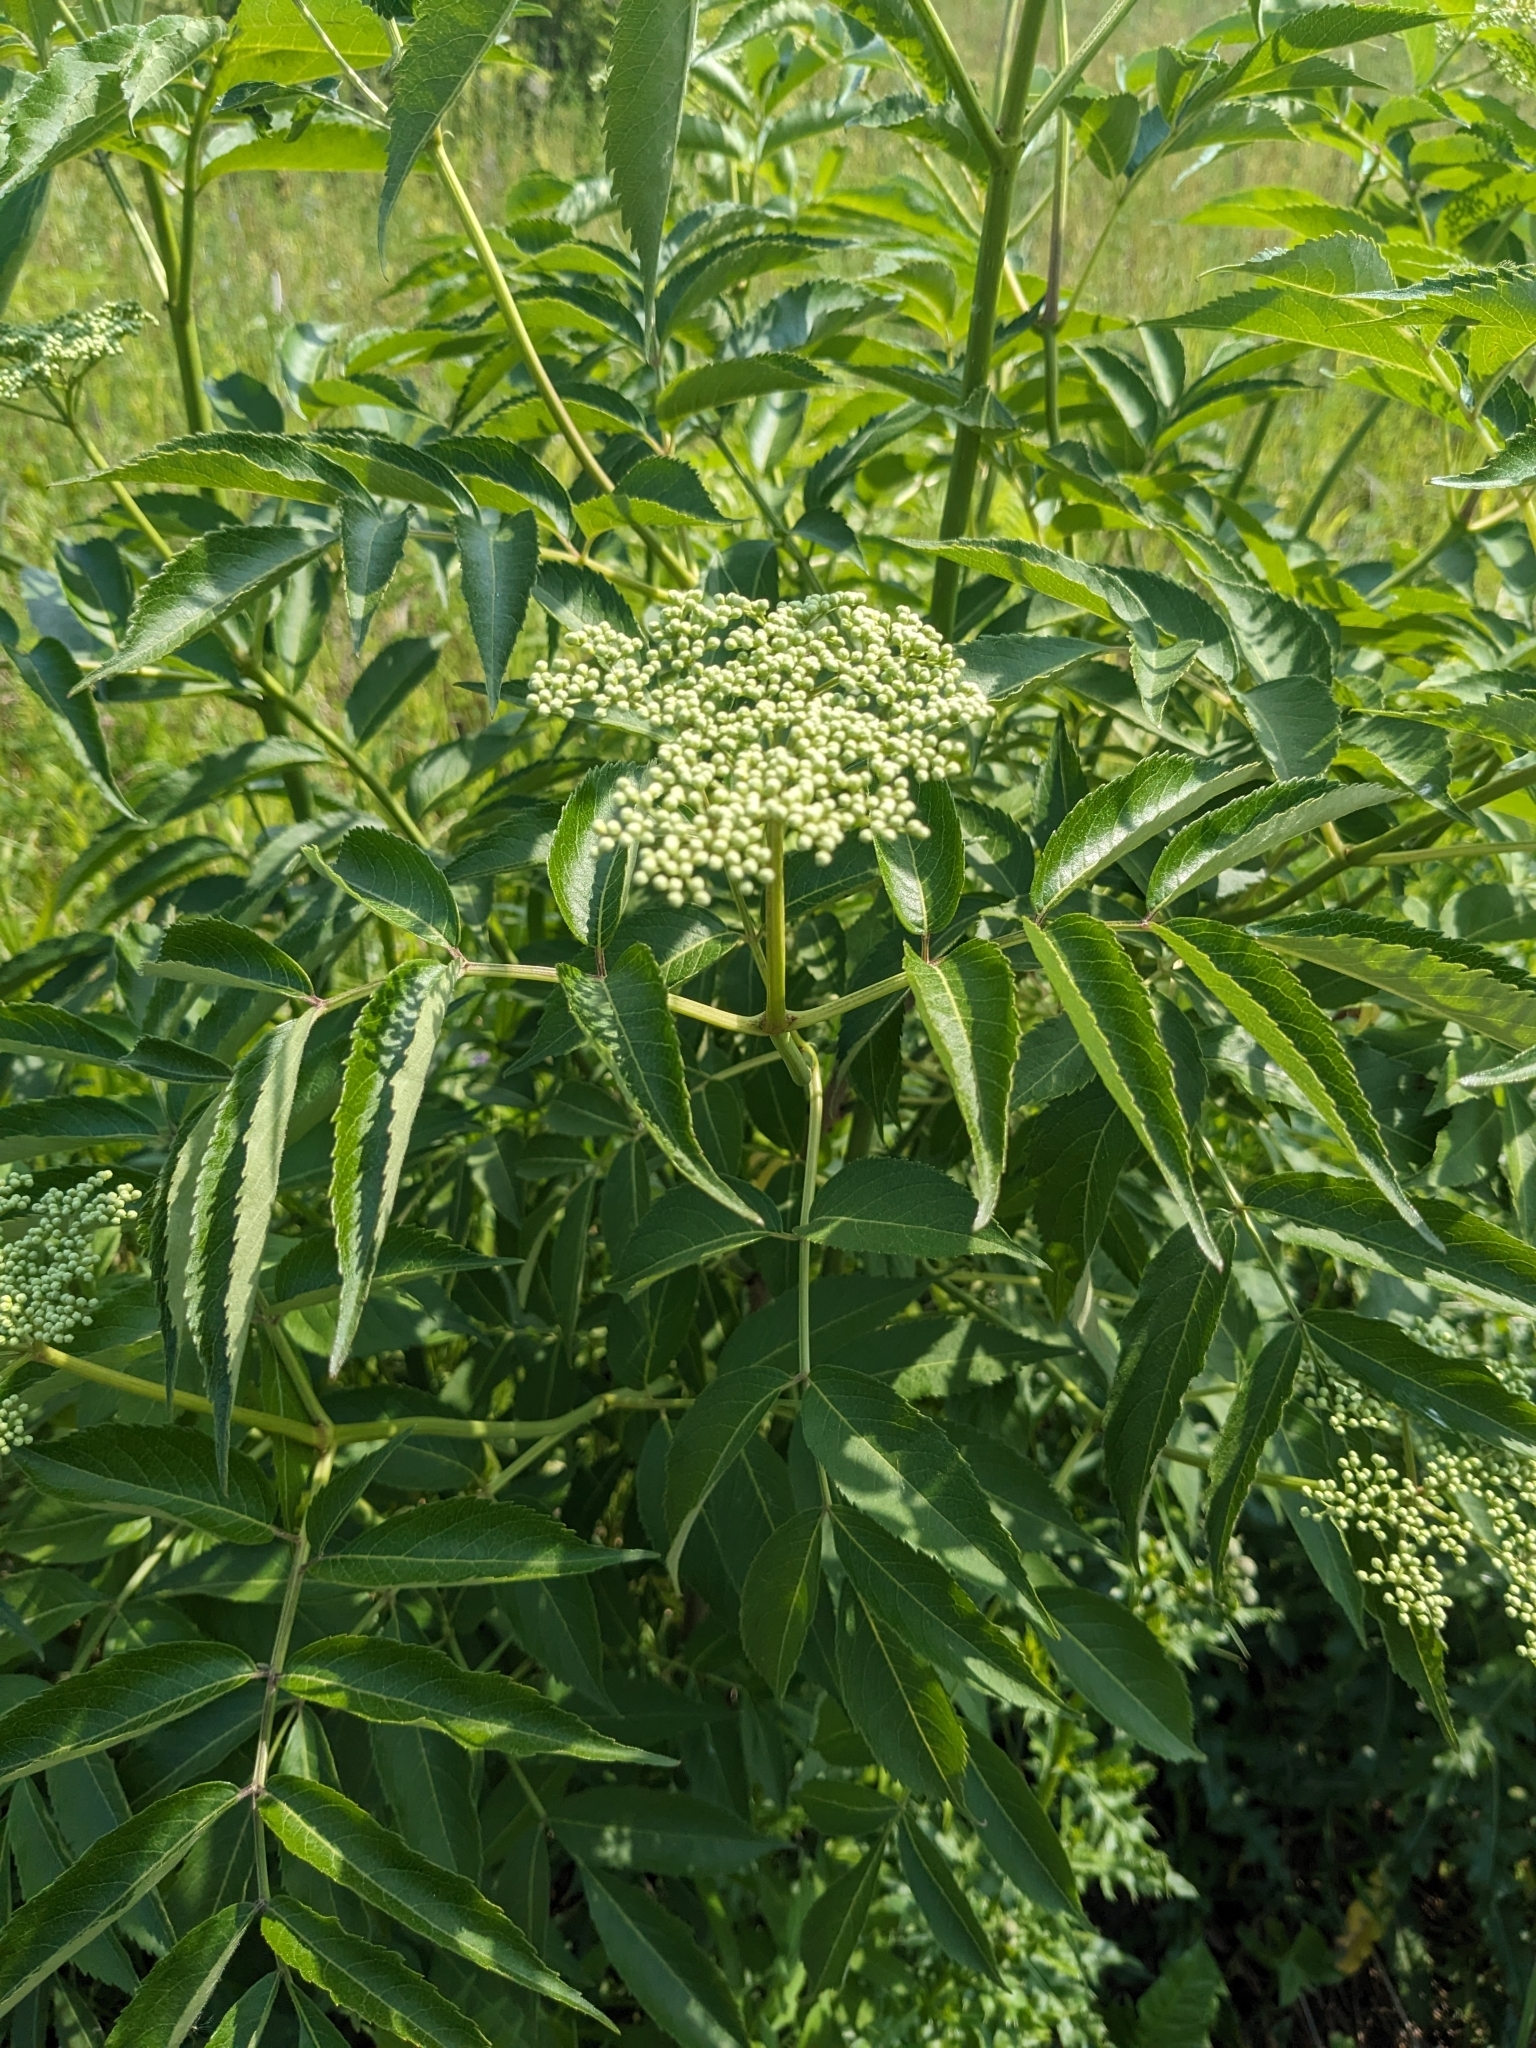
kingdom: Plantae
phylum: Tracheophyta
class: Magnoliopsida
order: Dipsacales
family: Viburnaceae
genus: Sambucus
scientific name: Sambucus canadensis
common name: American elder
